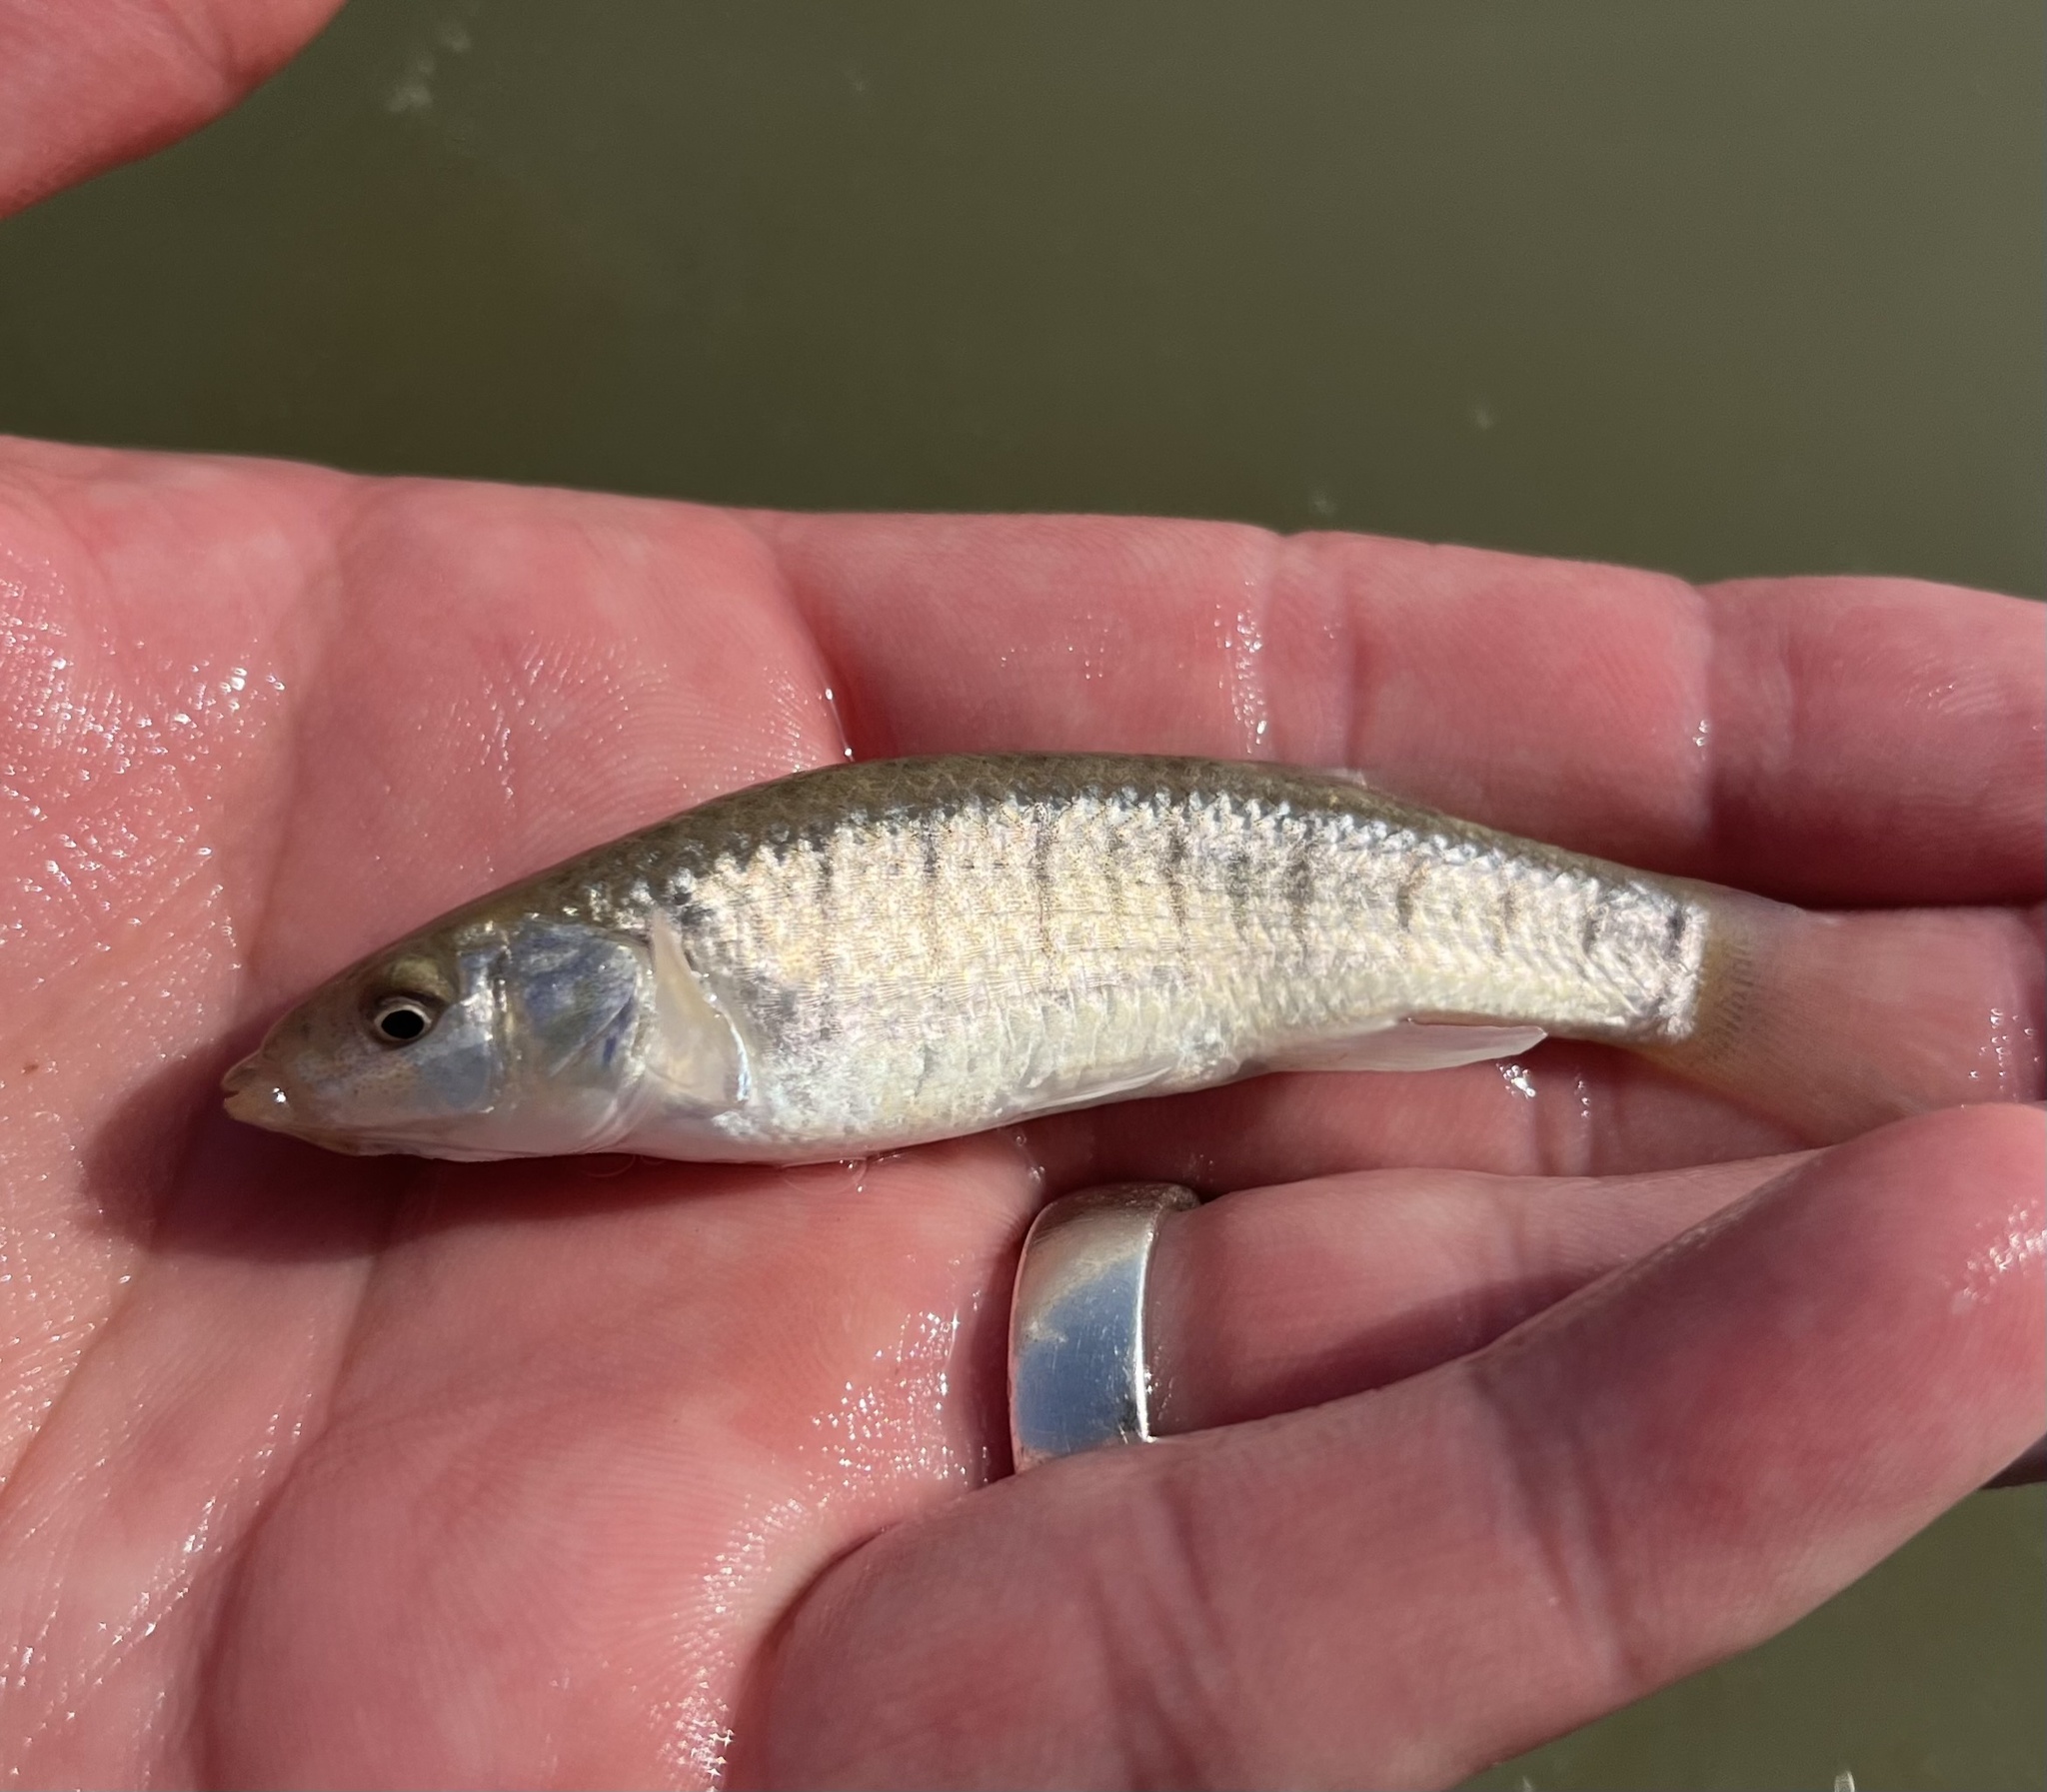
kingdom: Animalia
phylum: Chordata
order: Cyprinodontiformes
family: Fundulidae
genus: Fundulus
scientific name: Fundulus similis
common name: Longnose killifish
